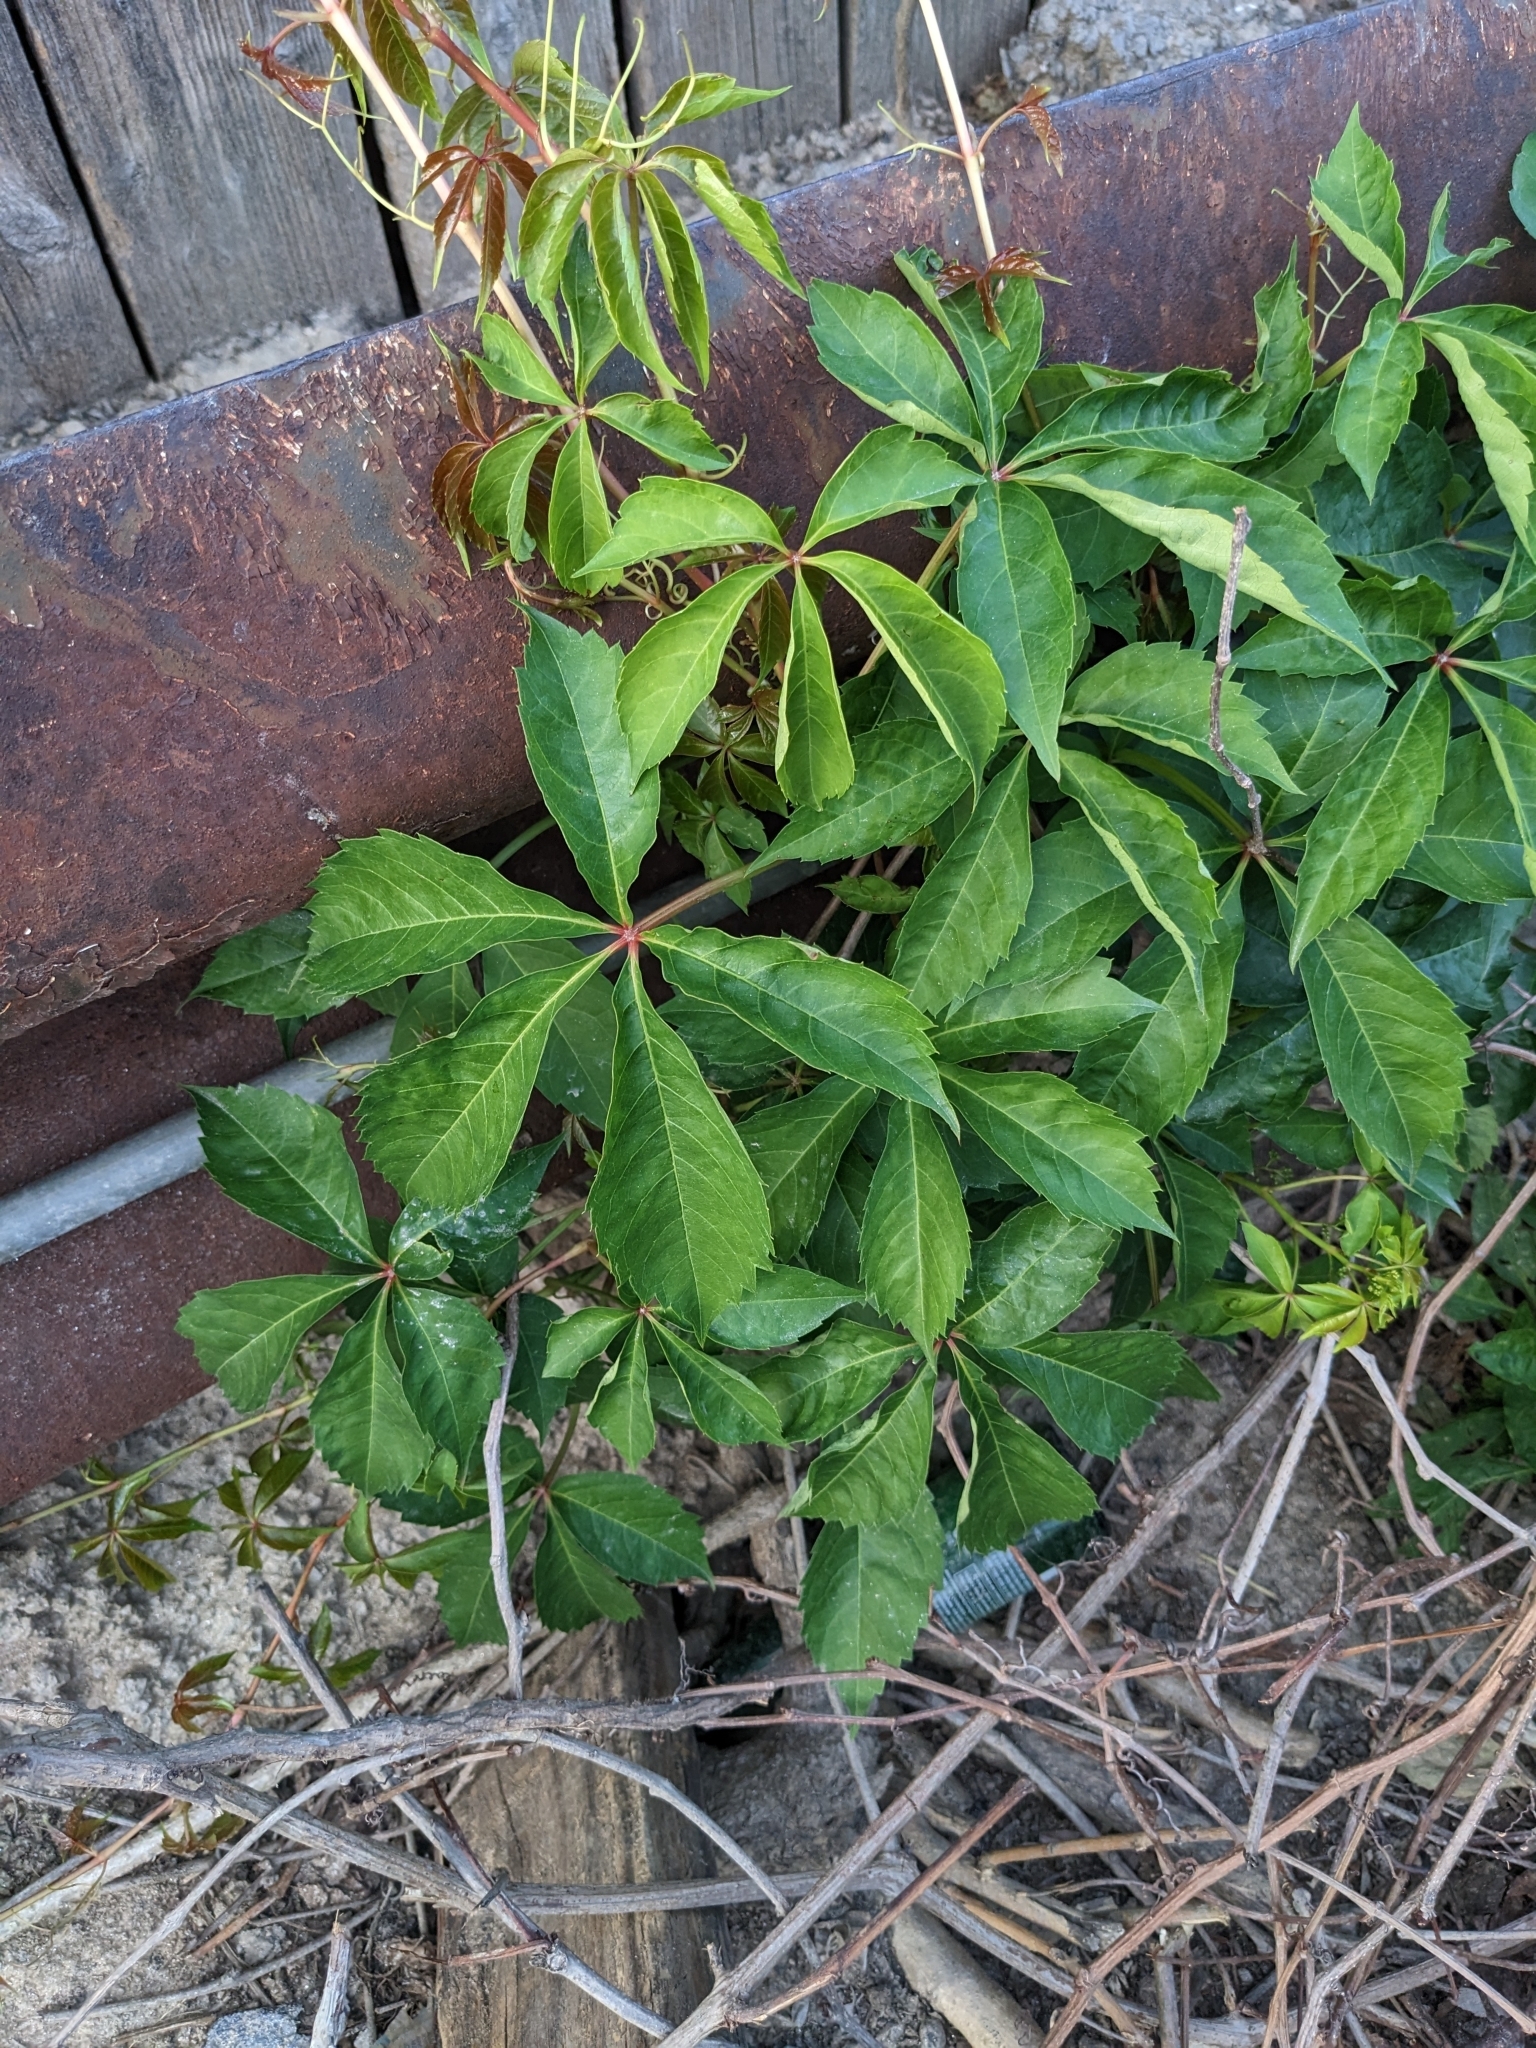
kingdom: Plantae
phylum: Tracheophyta
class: Magnoliopsida
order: Vitales
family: Vitaceae
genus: Parthenocissus
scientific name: Parthenocissus quinquefolia
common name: Virginia-creeper
